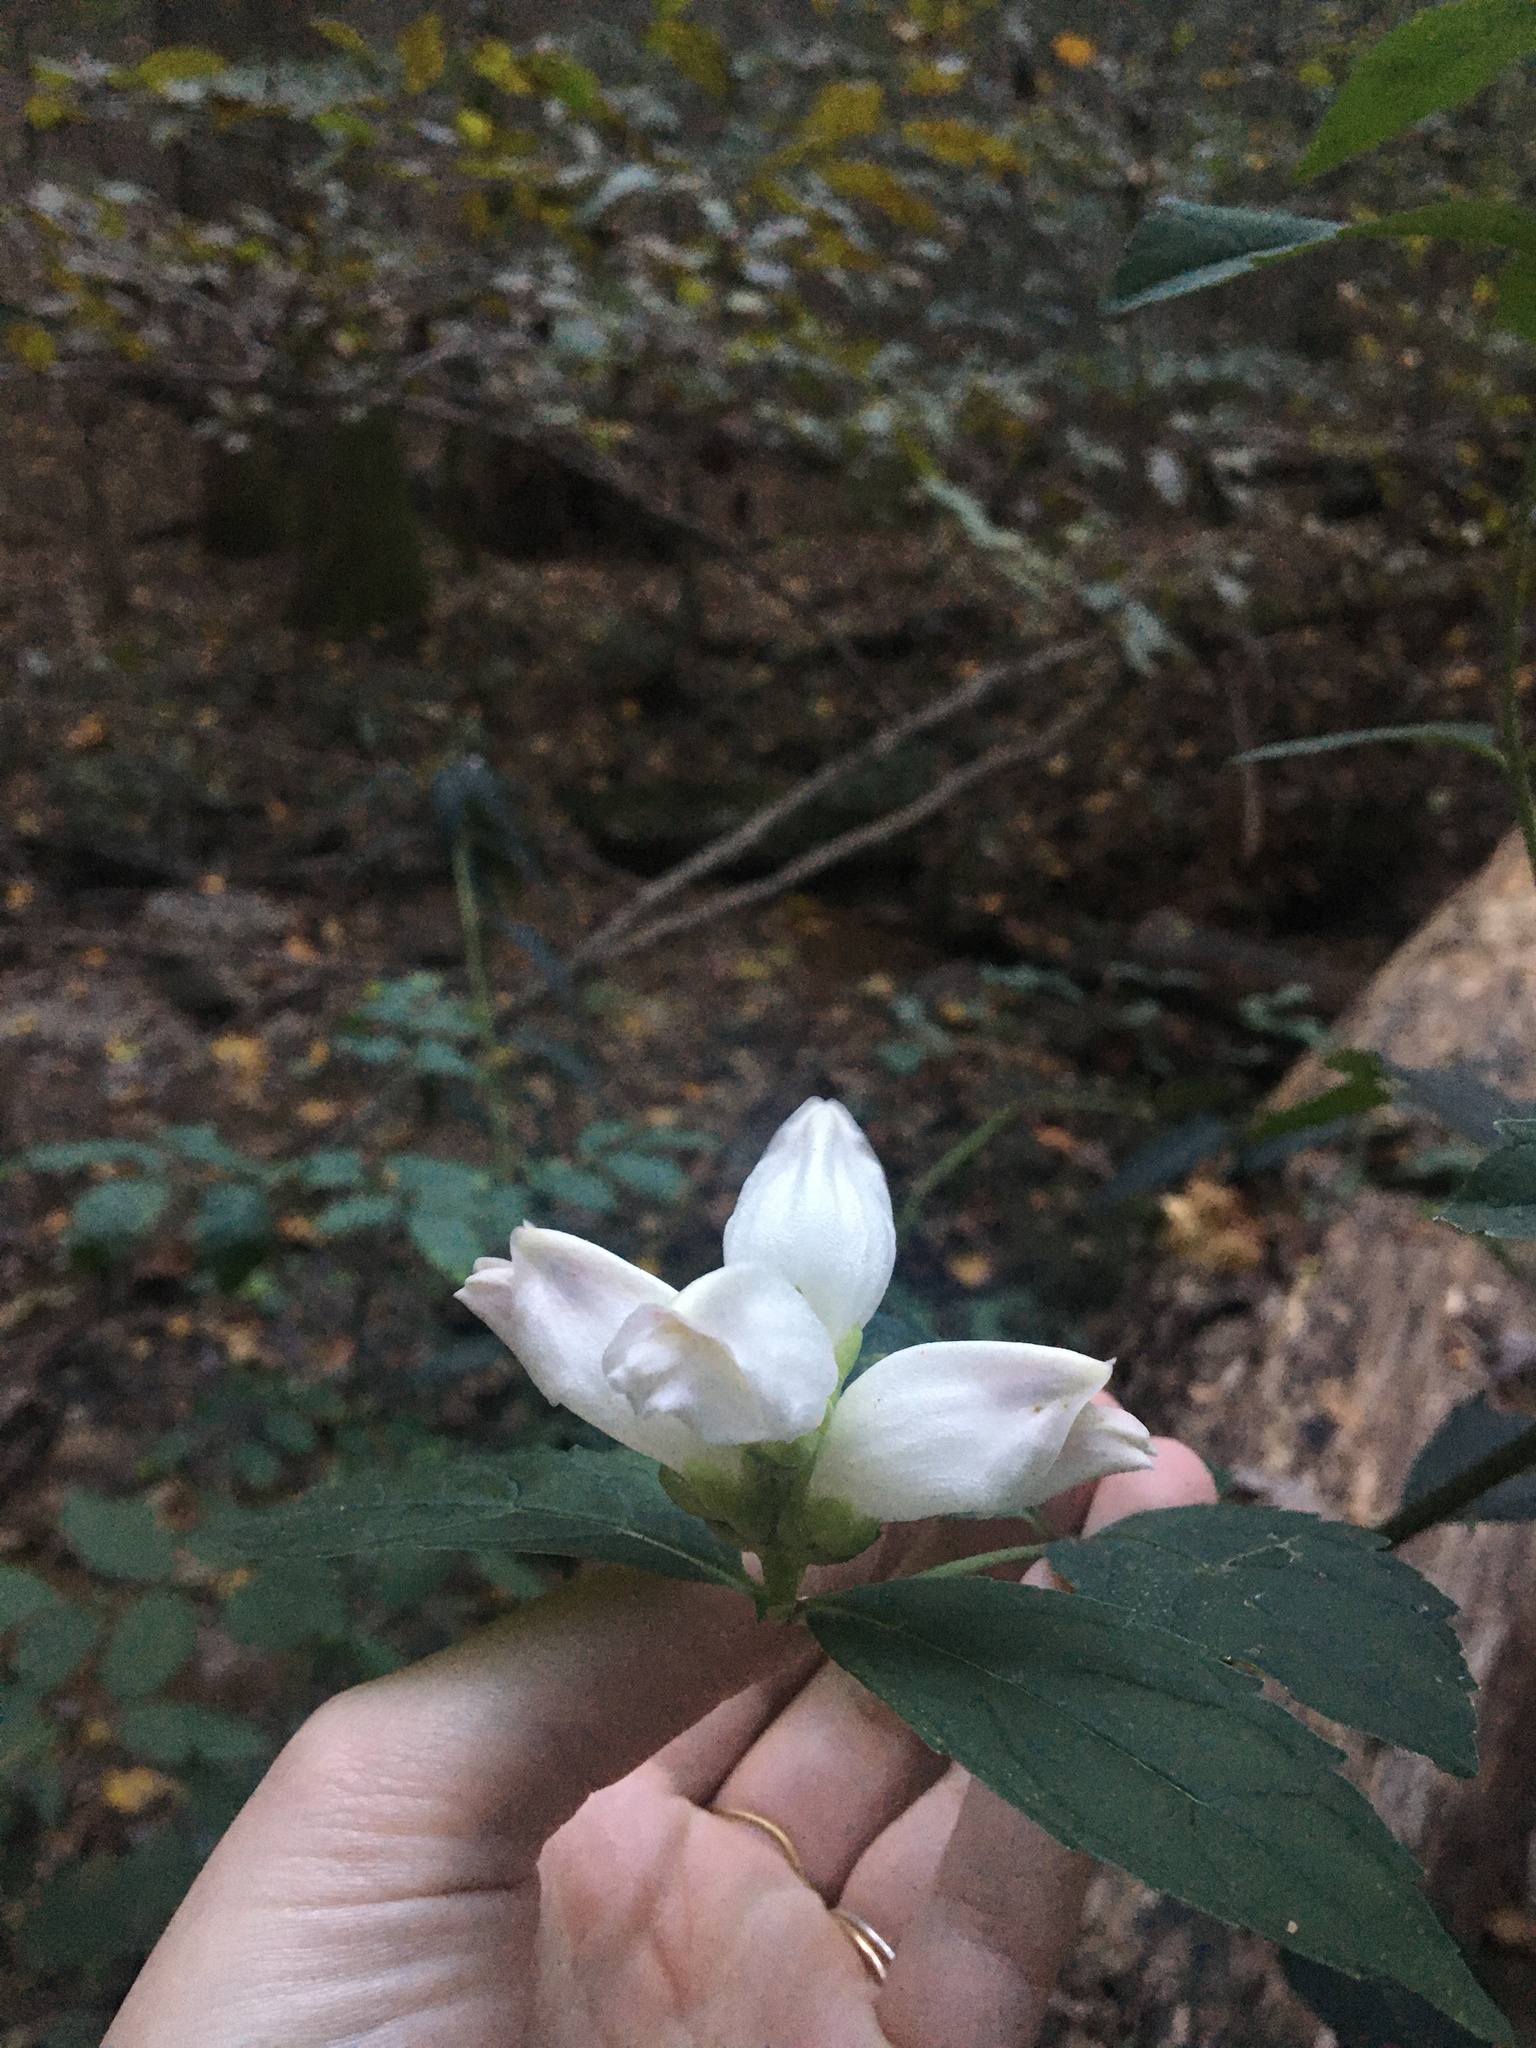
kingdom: Plantae
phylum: Tracheophyta
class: Magnoliopsida
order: Lamiales
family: Plantaginaceae
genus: Chelone
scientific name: Chelone glabra
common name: Snakehead
